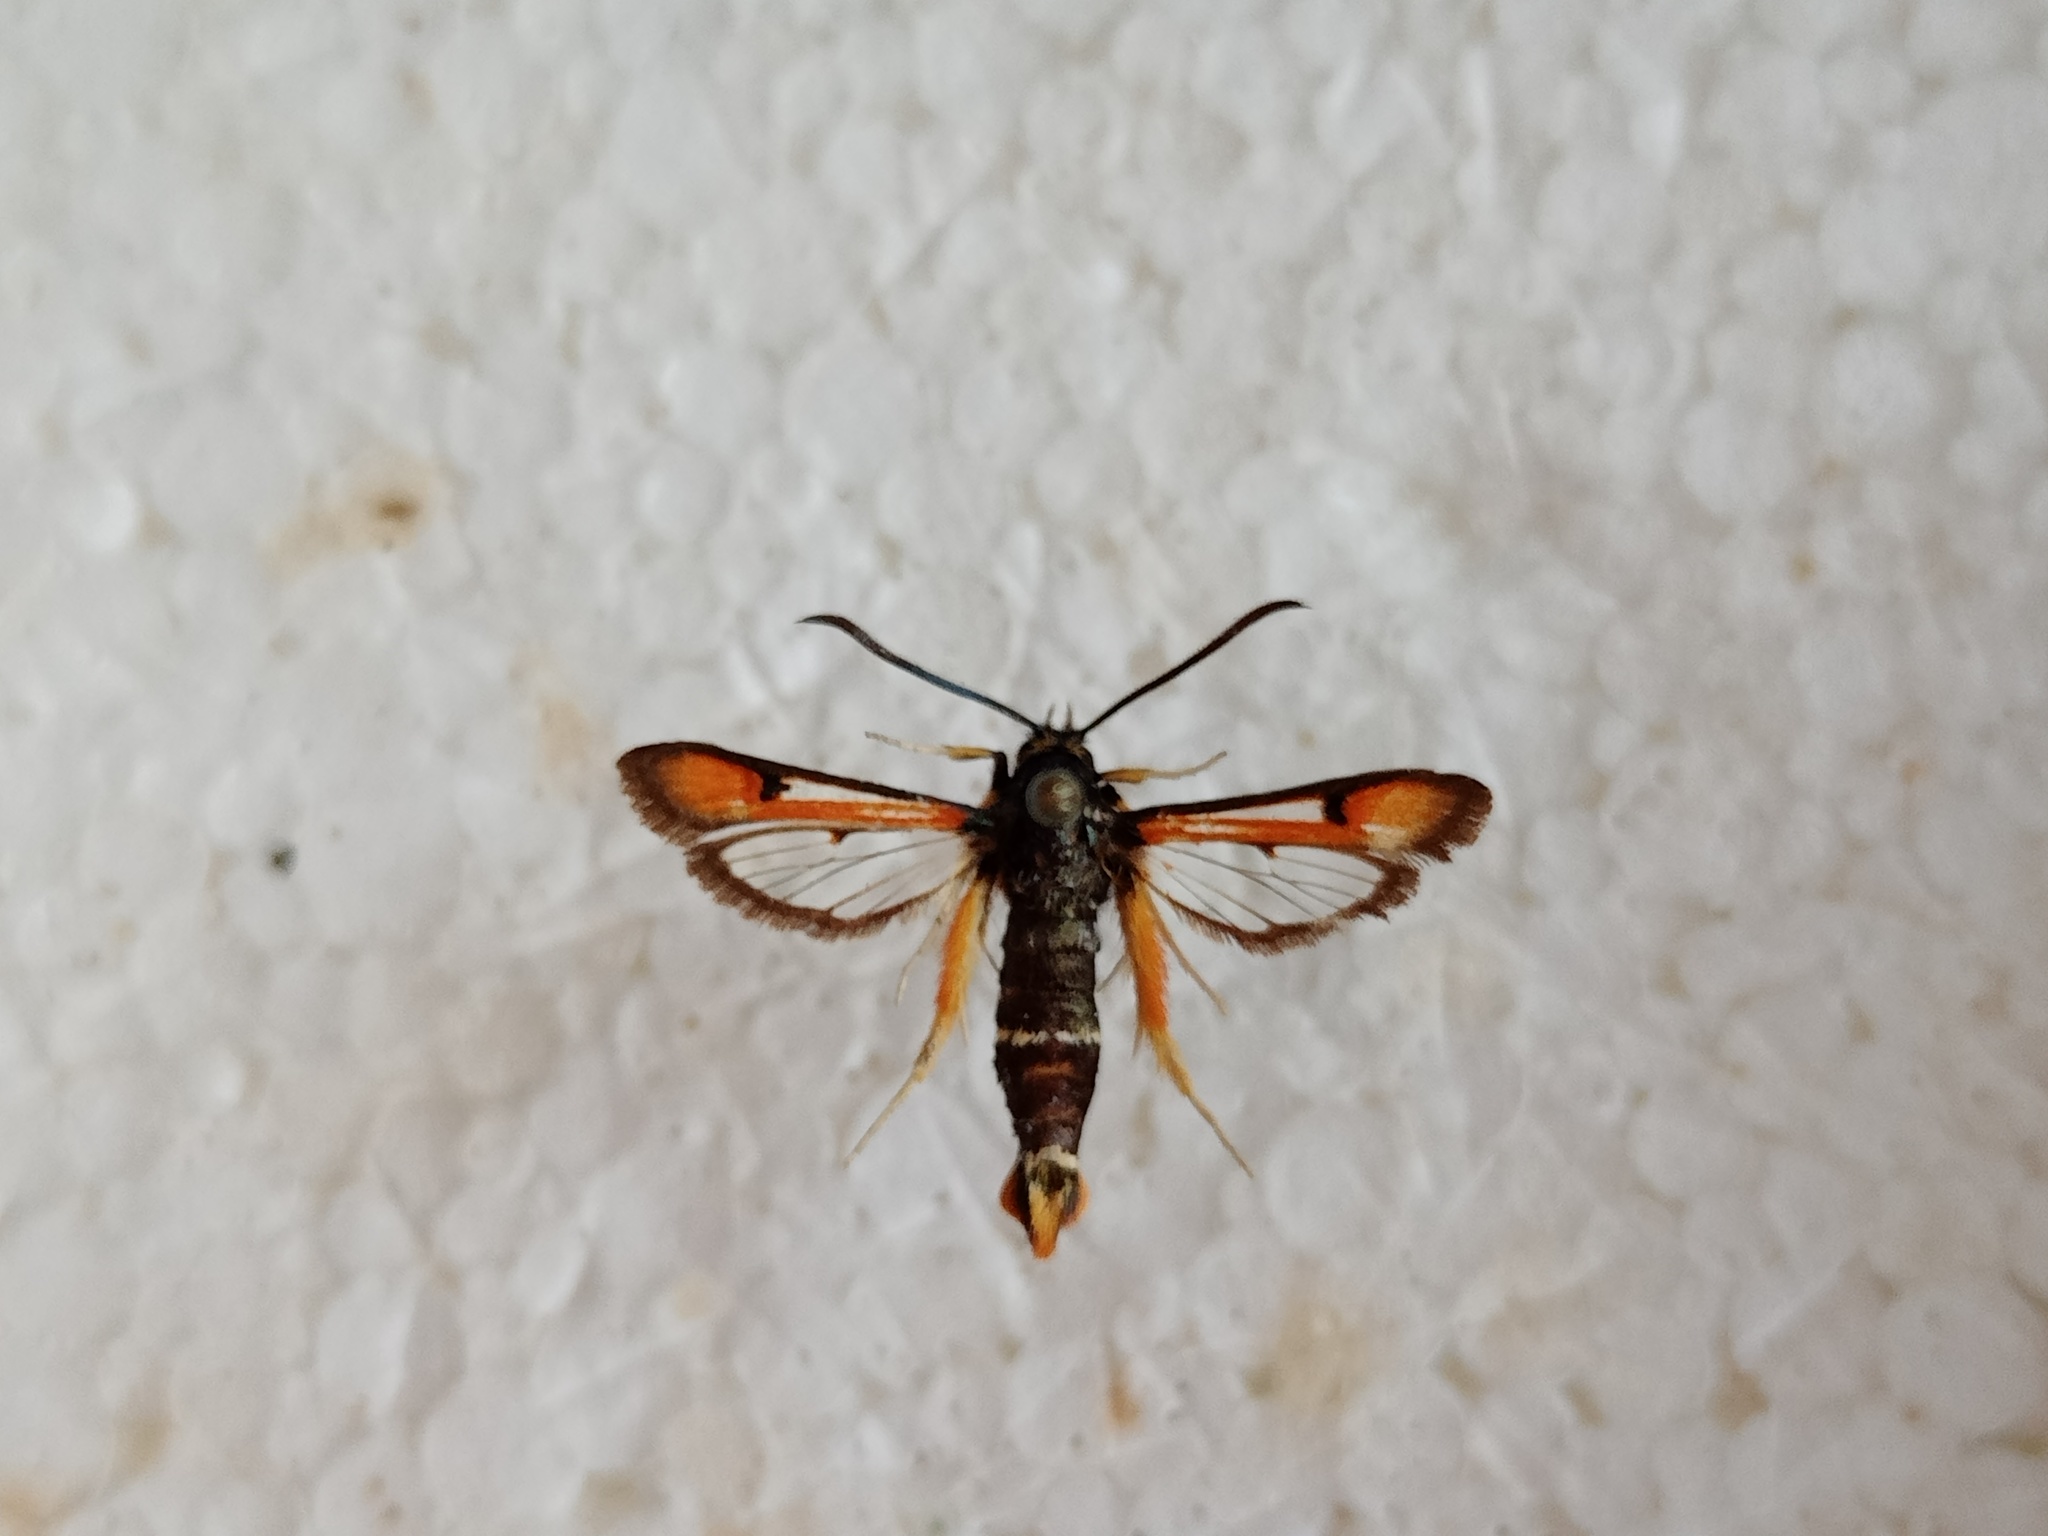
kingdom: Animalia
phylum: Arthropoda
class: Insecta
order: Lepidoptera
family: Sesiidae
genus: Pyropteron
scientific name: Pyropteron chrysidiforme
